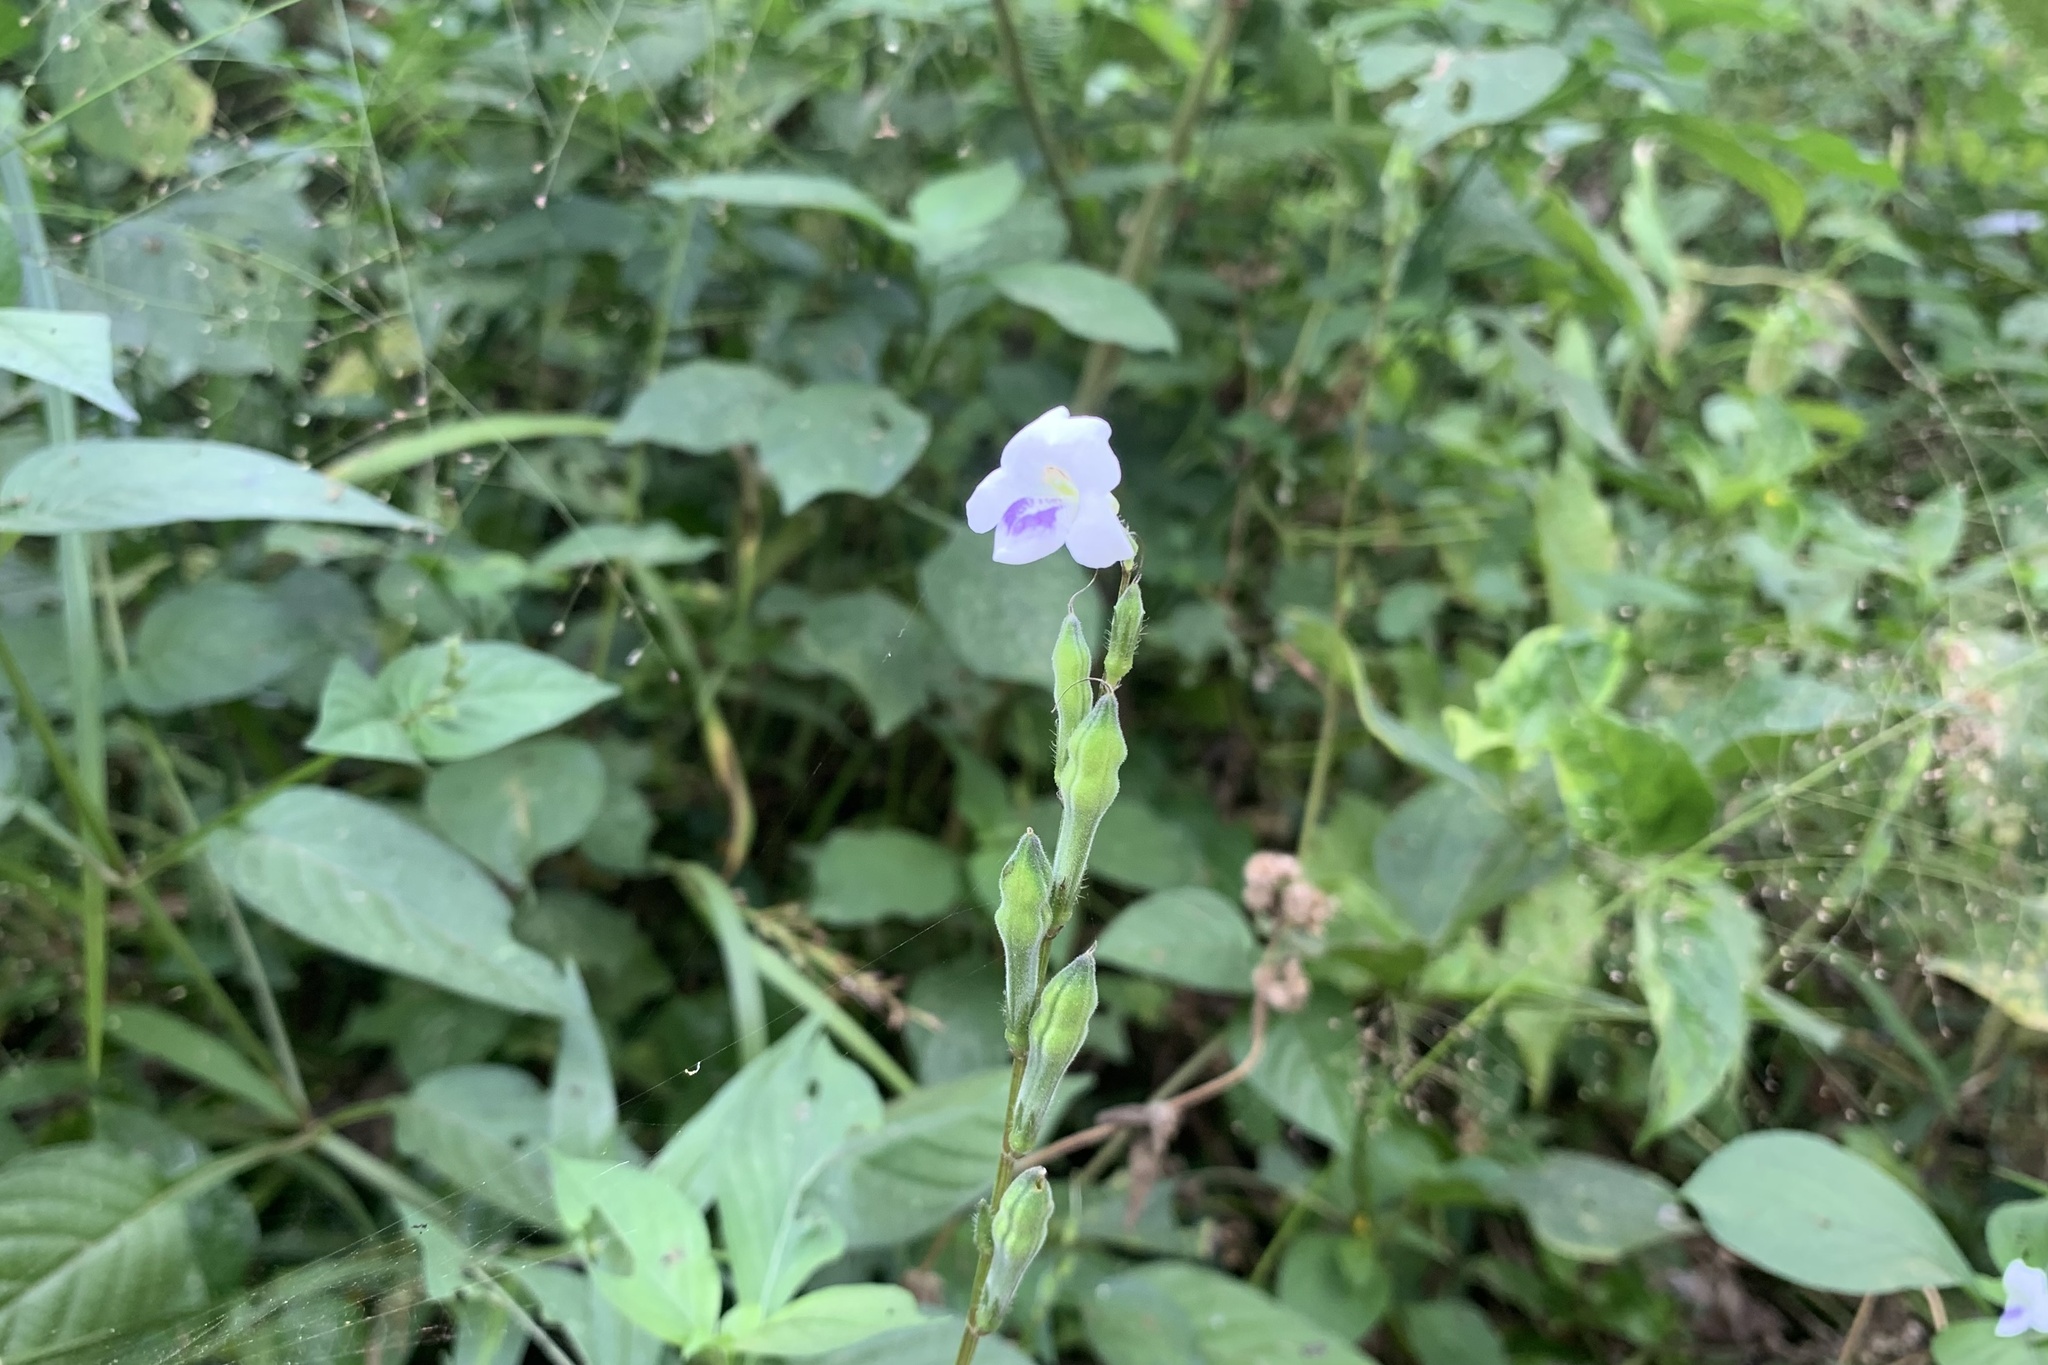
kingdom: Plantae
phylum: Tracheophyta
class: Magnoliopsida
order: Lamiales
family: Acanthaceae
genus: Asystasia
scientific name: Asystasia intrusa
